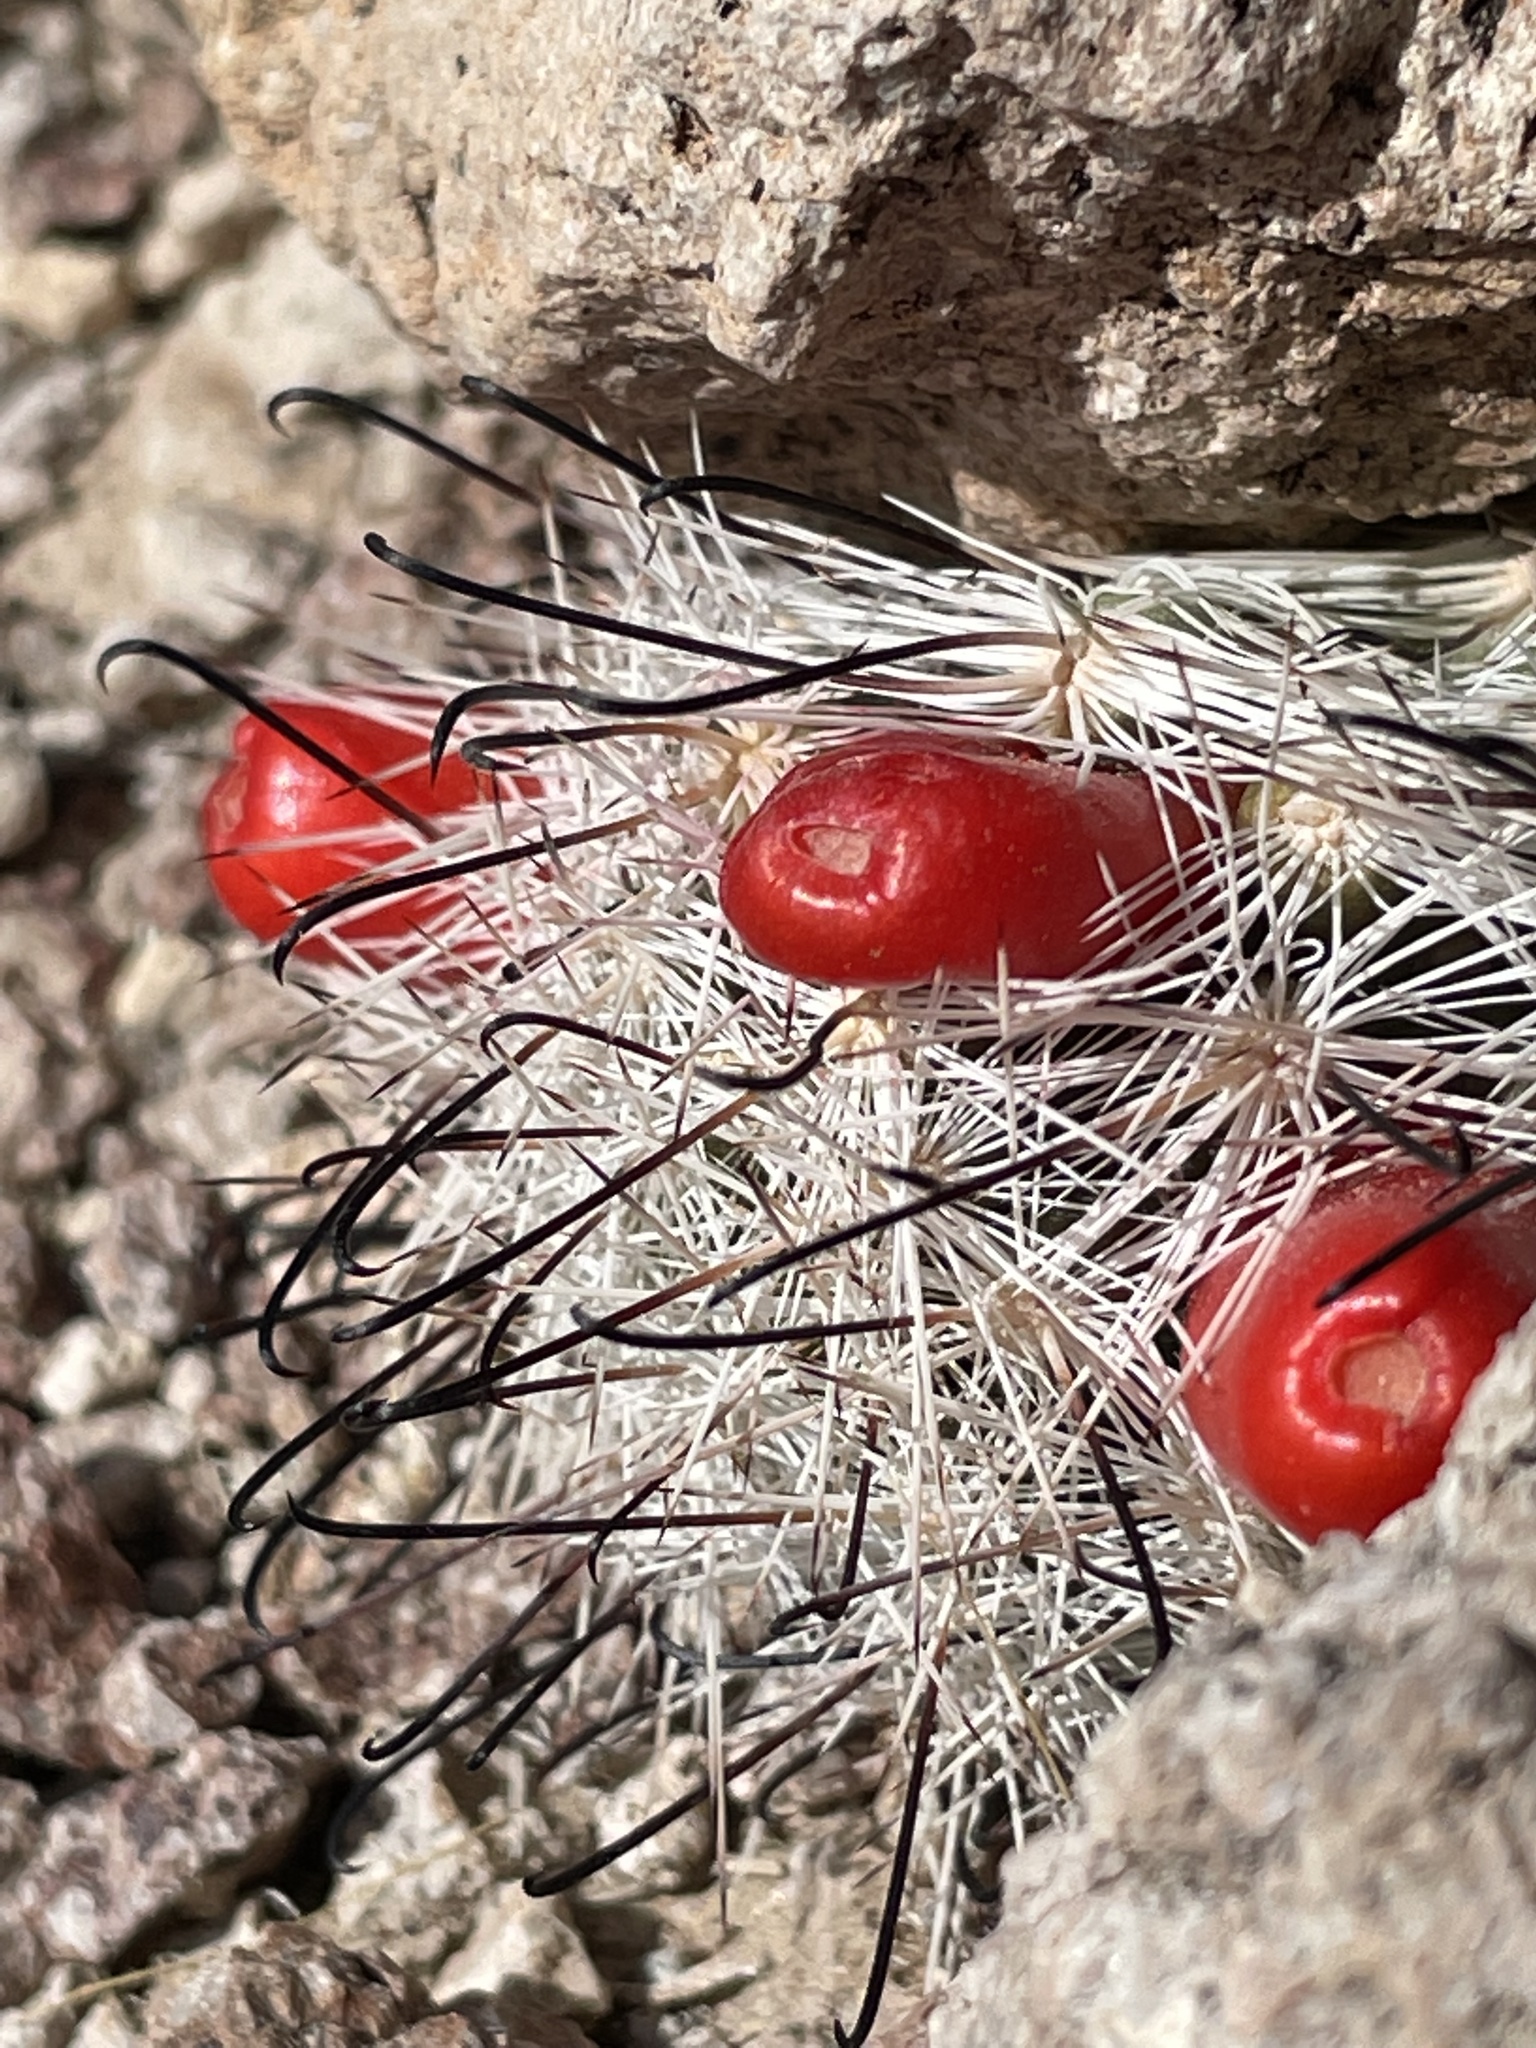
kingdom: Plantae
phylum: Tracheophyta
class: Magnoliopsida
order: Caryophyllales
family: Cactaceae
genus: Cochemiea
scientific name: Cochemiea tetrancistra
